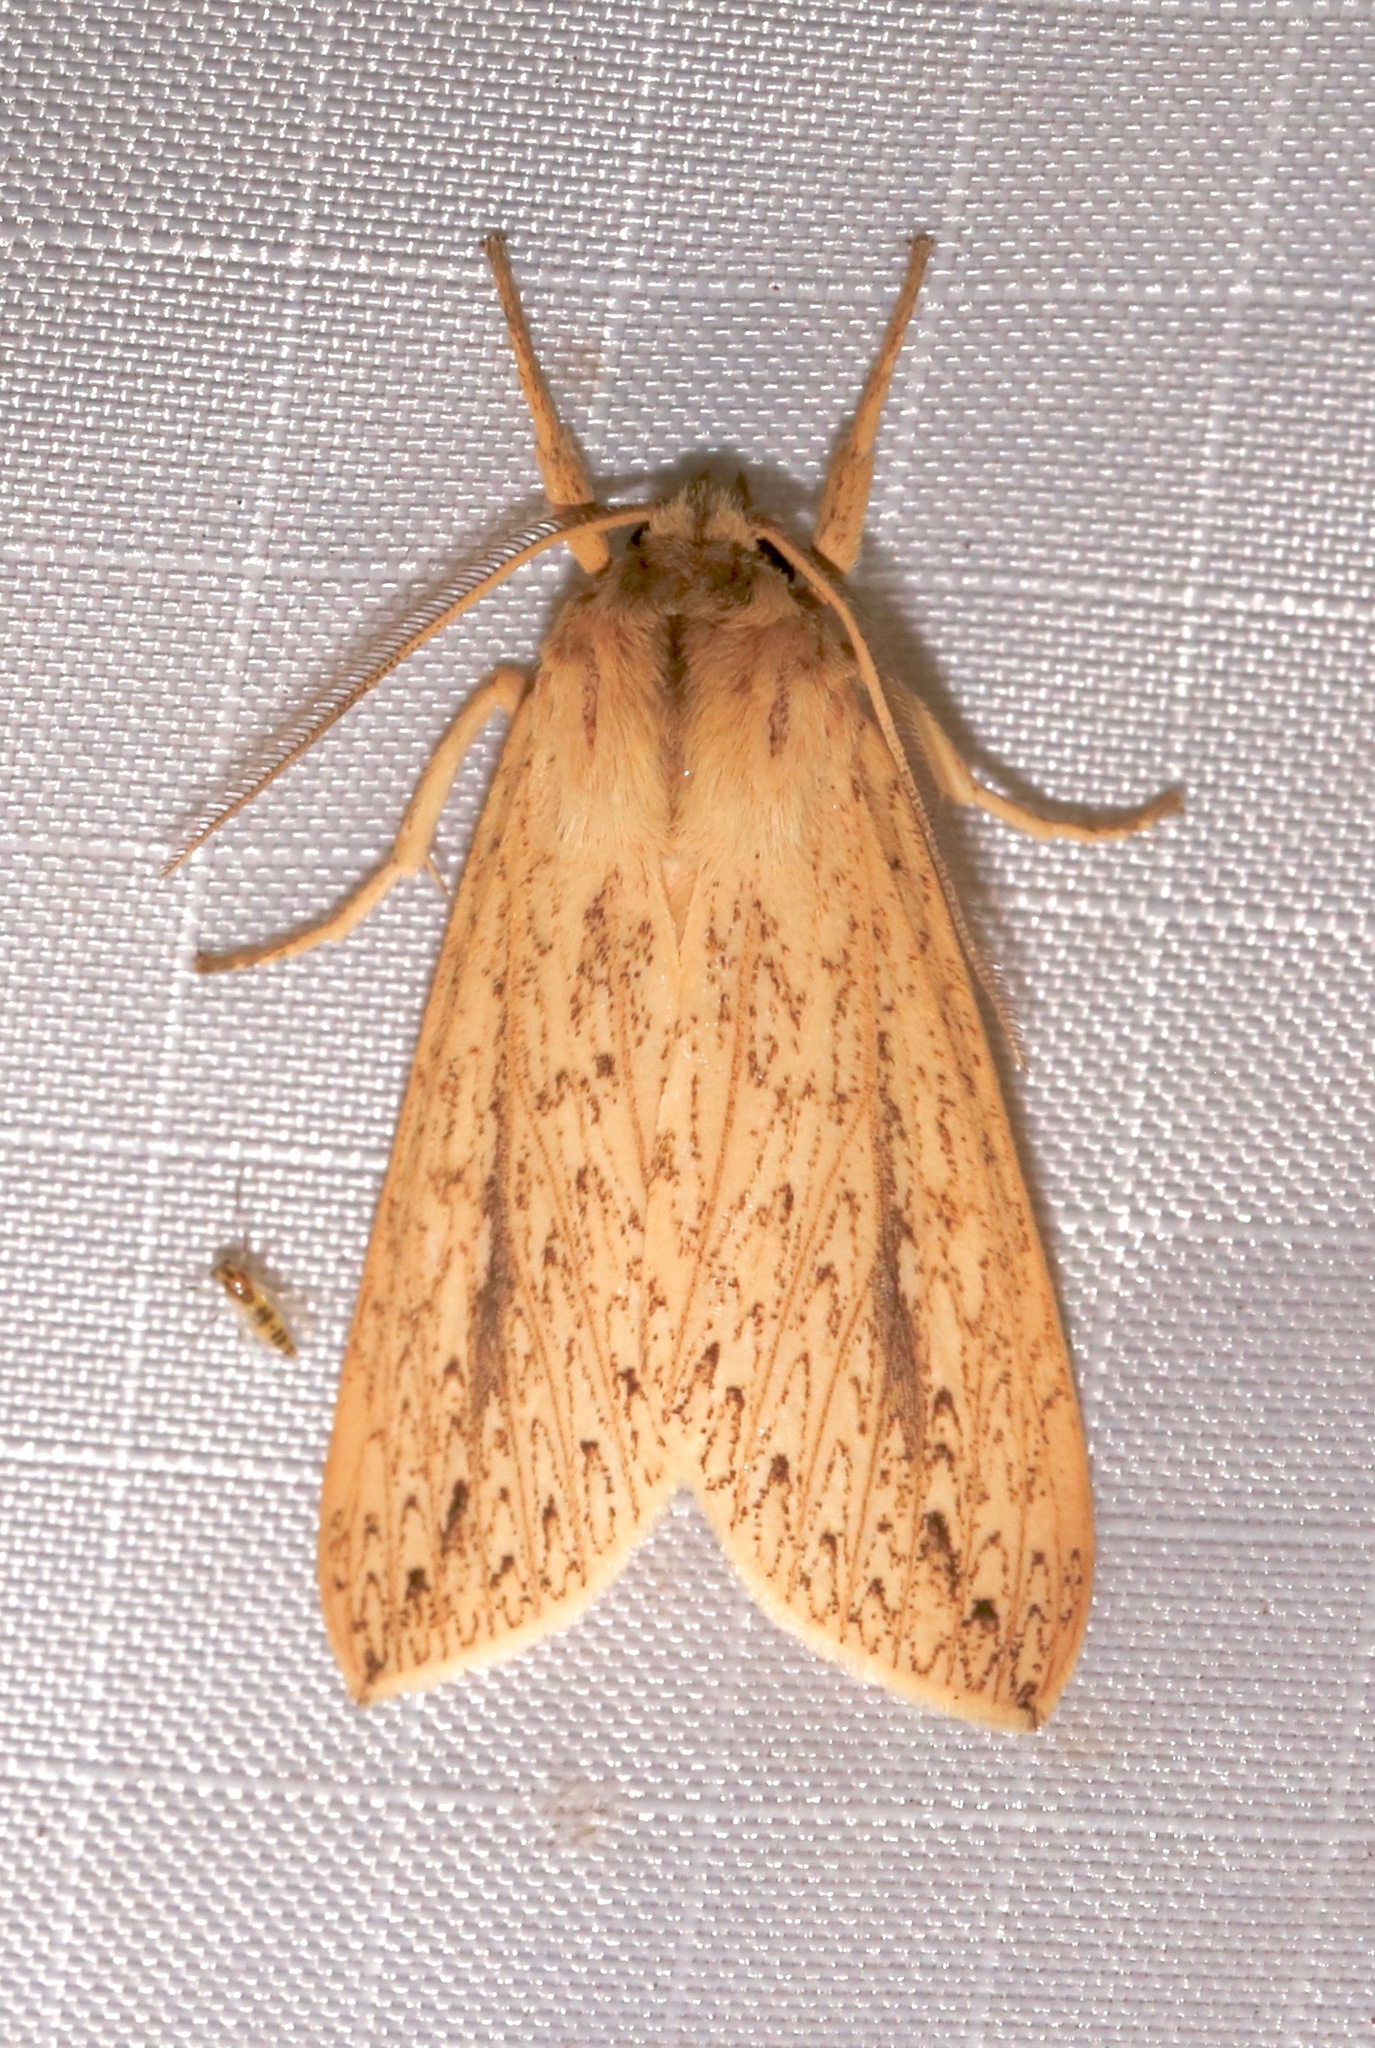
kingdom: Animalia
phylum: Arthropoda
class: Insecta
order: Lepidoptera
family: Erebidae
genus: Leucanopsis
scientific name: Leucanopsis longa
